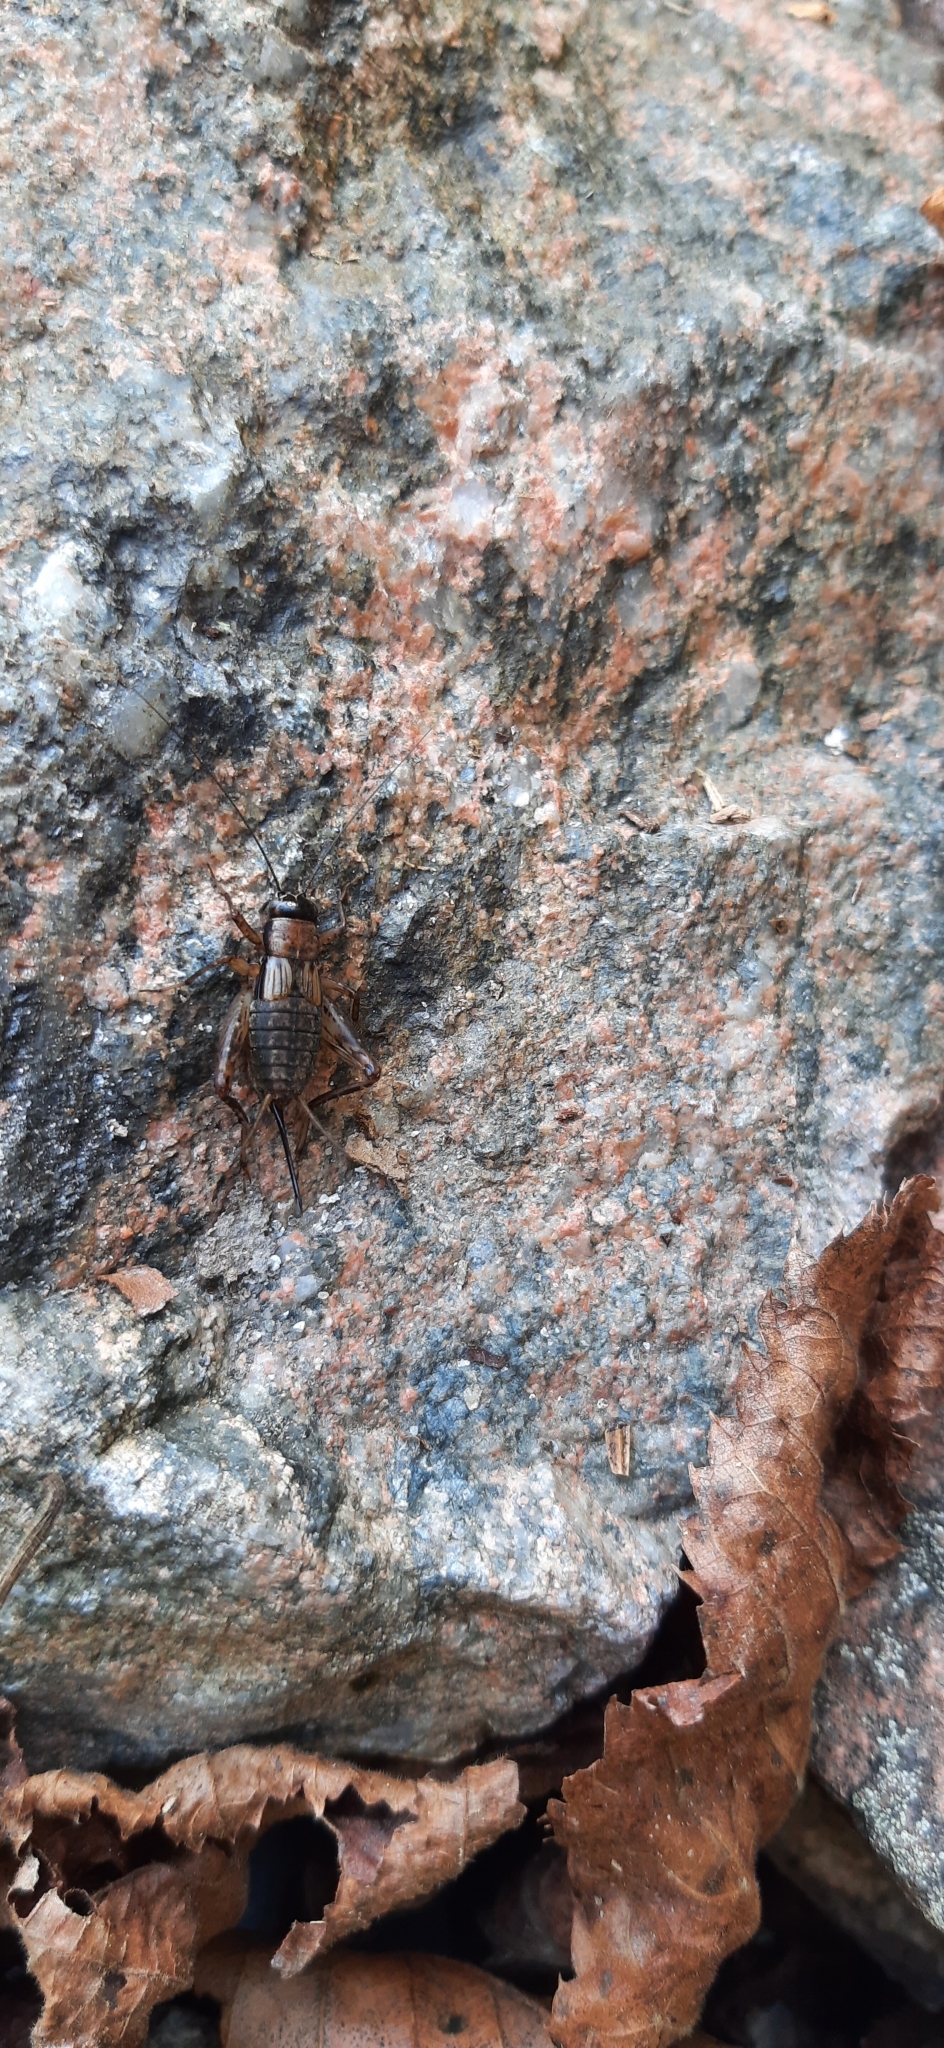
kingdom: Animalia
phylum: Arthropoda
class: Insecta
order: Orthoptera
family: Trigonidiidae
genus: Nemobius
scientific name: Nemobius sylvestris
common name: Wood-cricket
